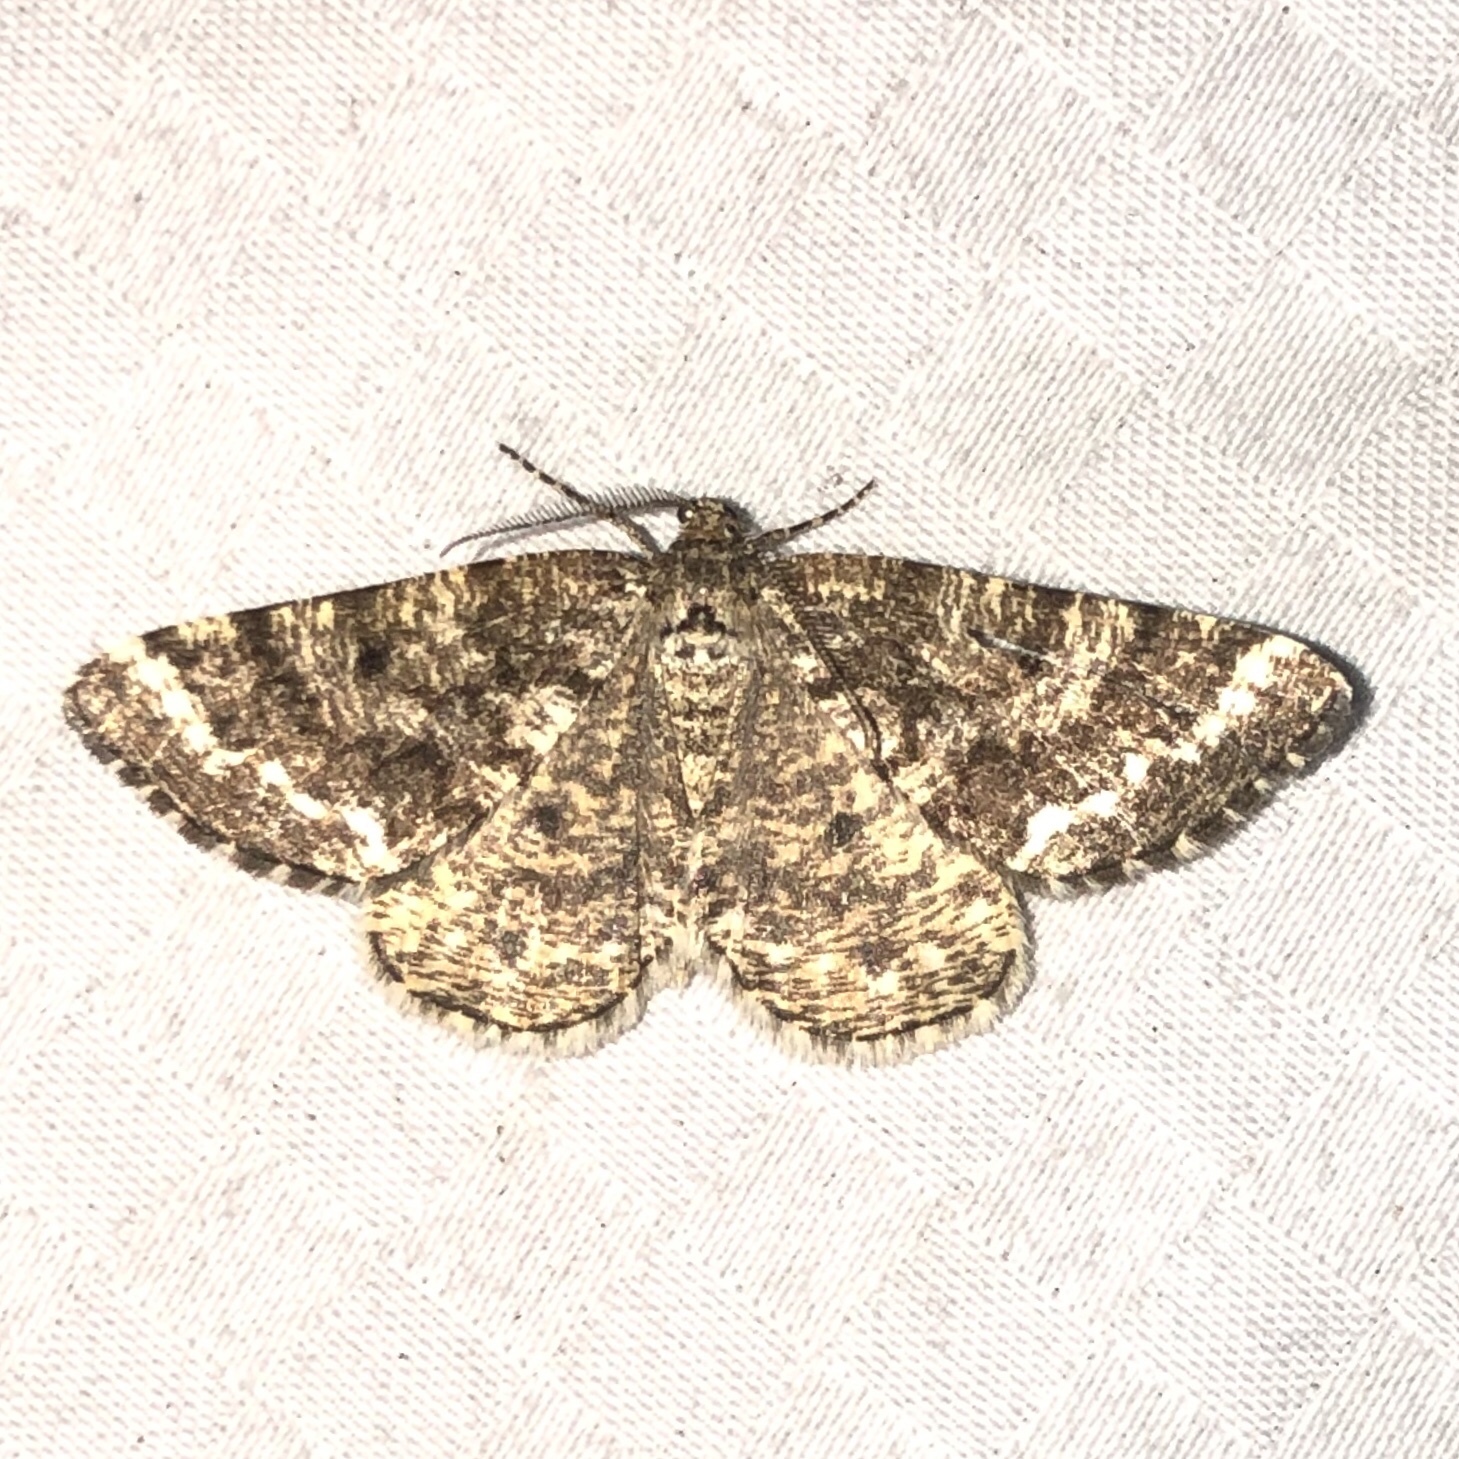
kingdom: Animalia
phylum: Arthropoda
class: Insecta
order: Lepidoptera
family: Geometridae
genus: Eufidonia
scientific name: Eufidonia notataria
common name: Powder moth
